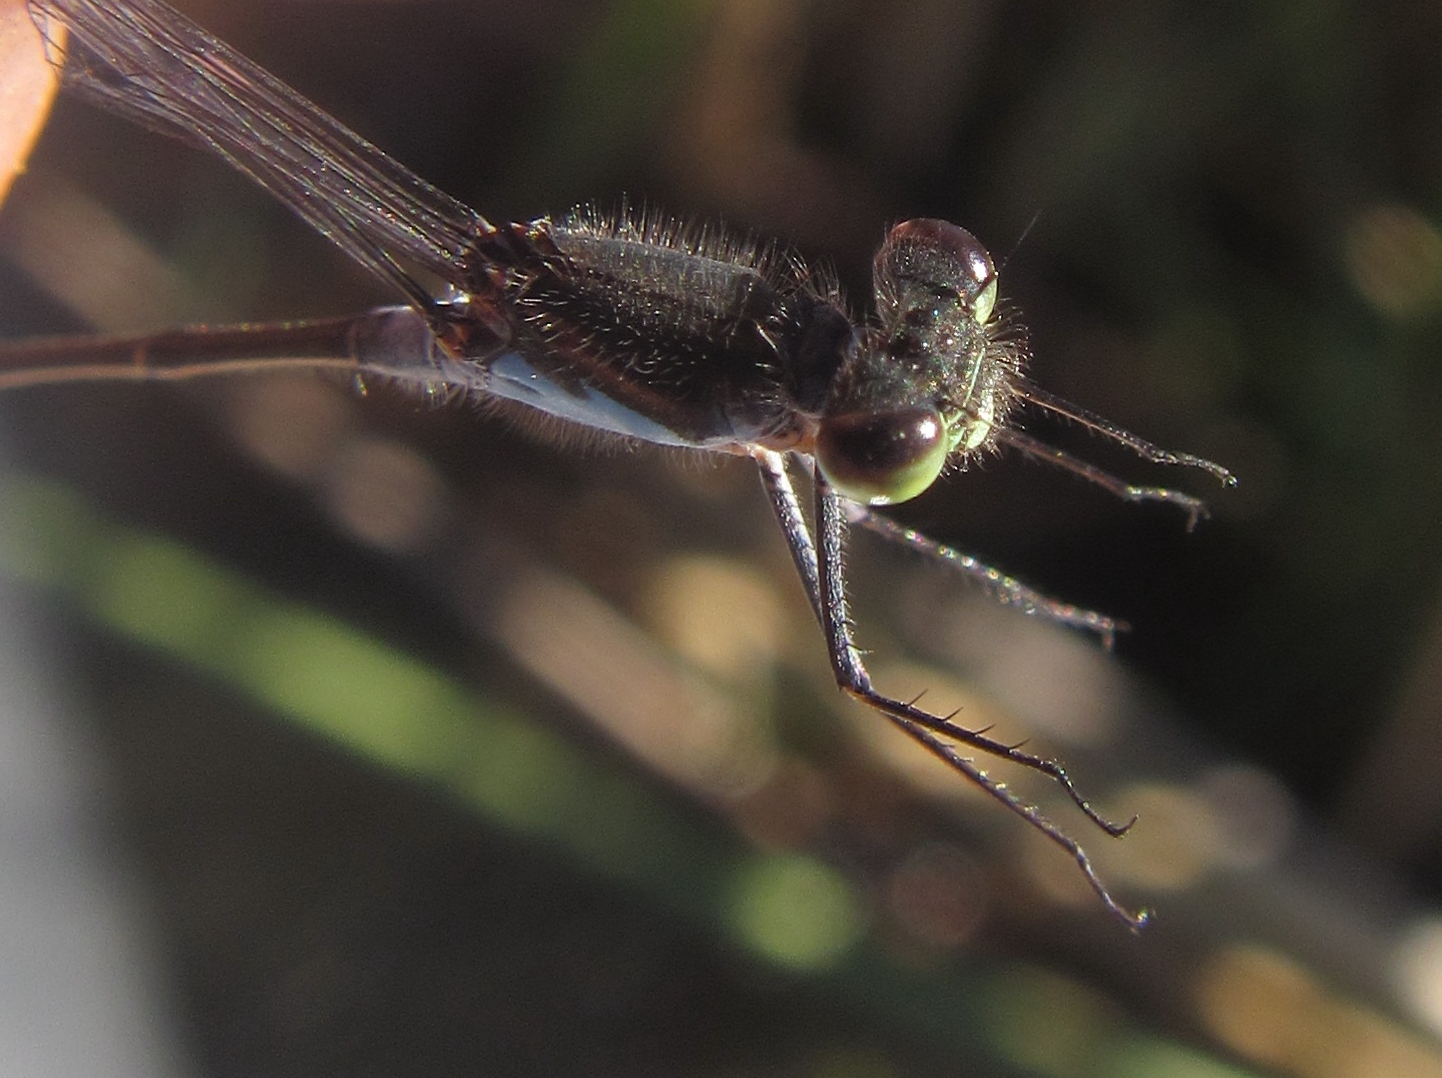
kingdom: Animalia
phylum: Arthropoda
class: Insecta
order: Odonata
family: Coenagrionidae
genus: Pseudagrion
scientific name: Pseudagrion deningi
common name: Dening's sprite
